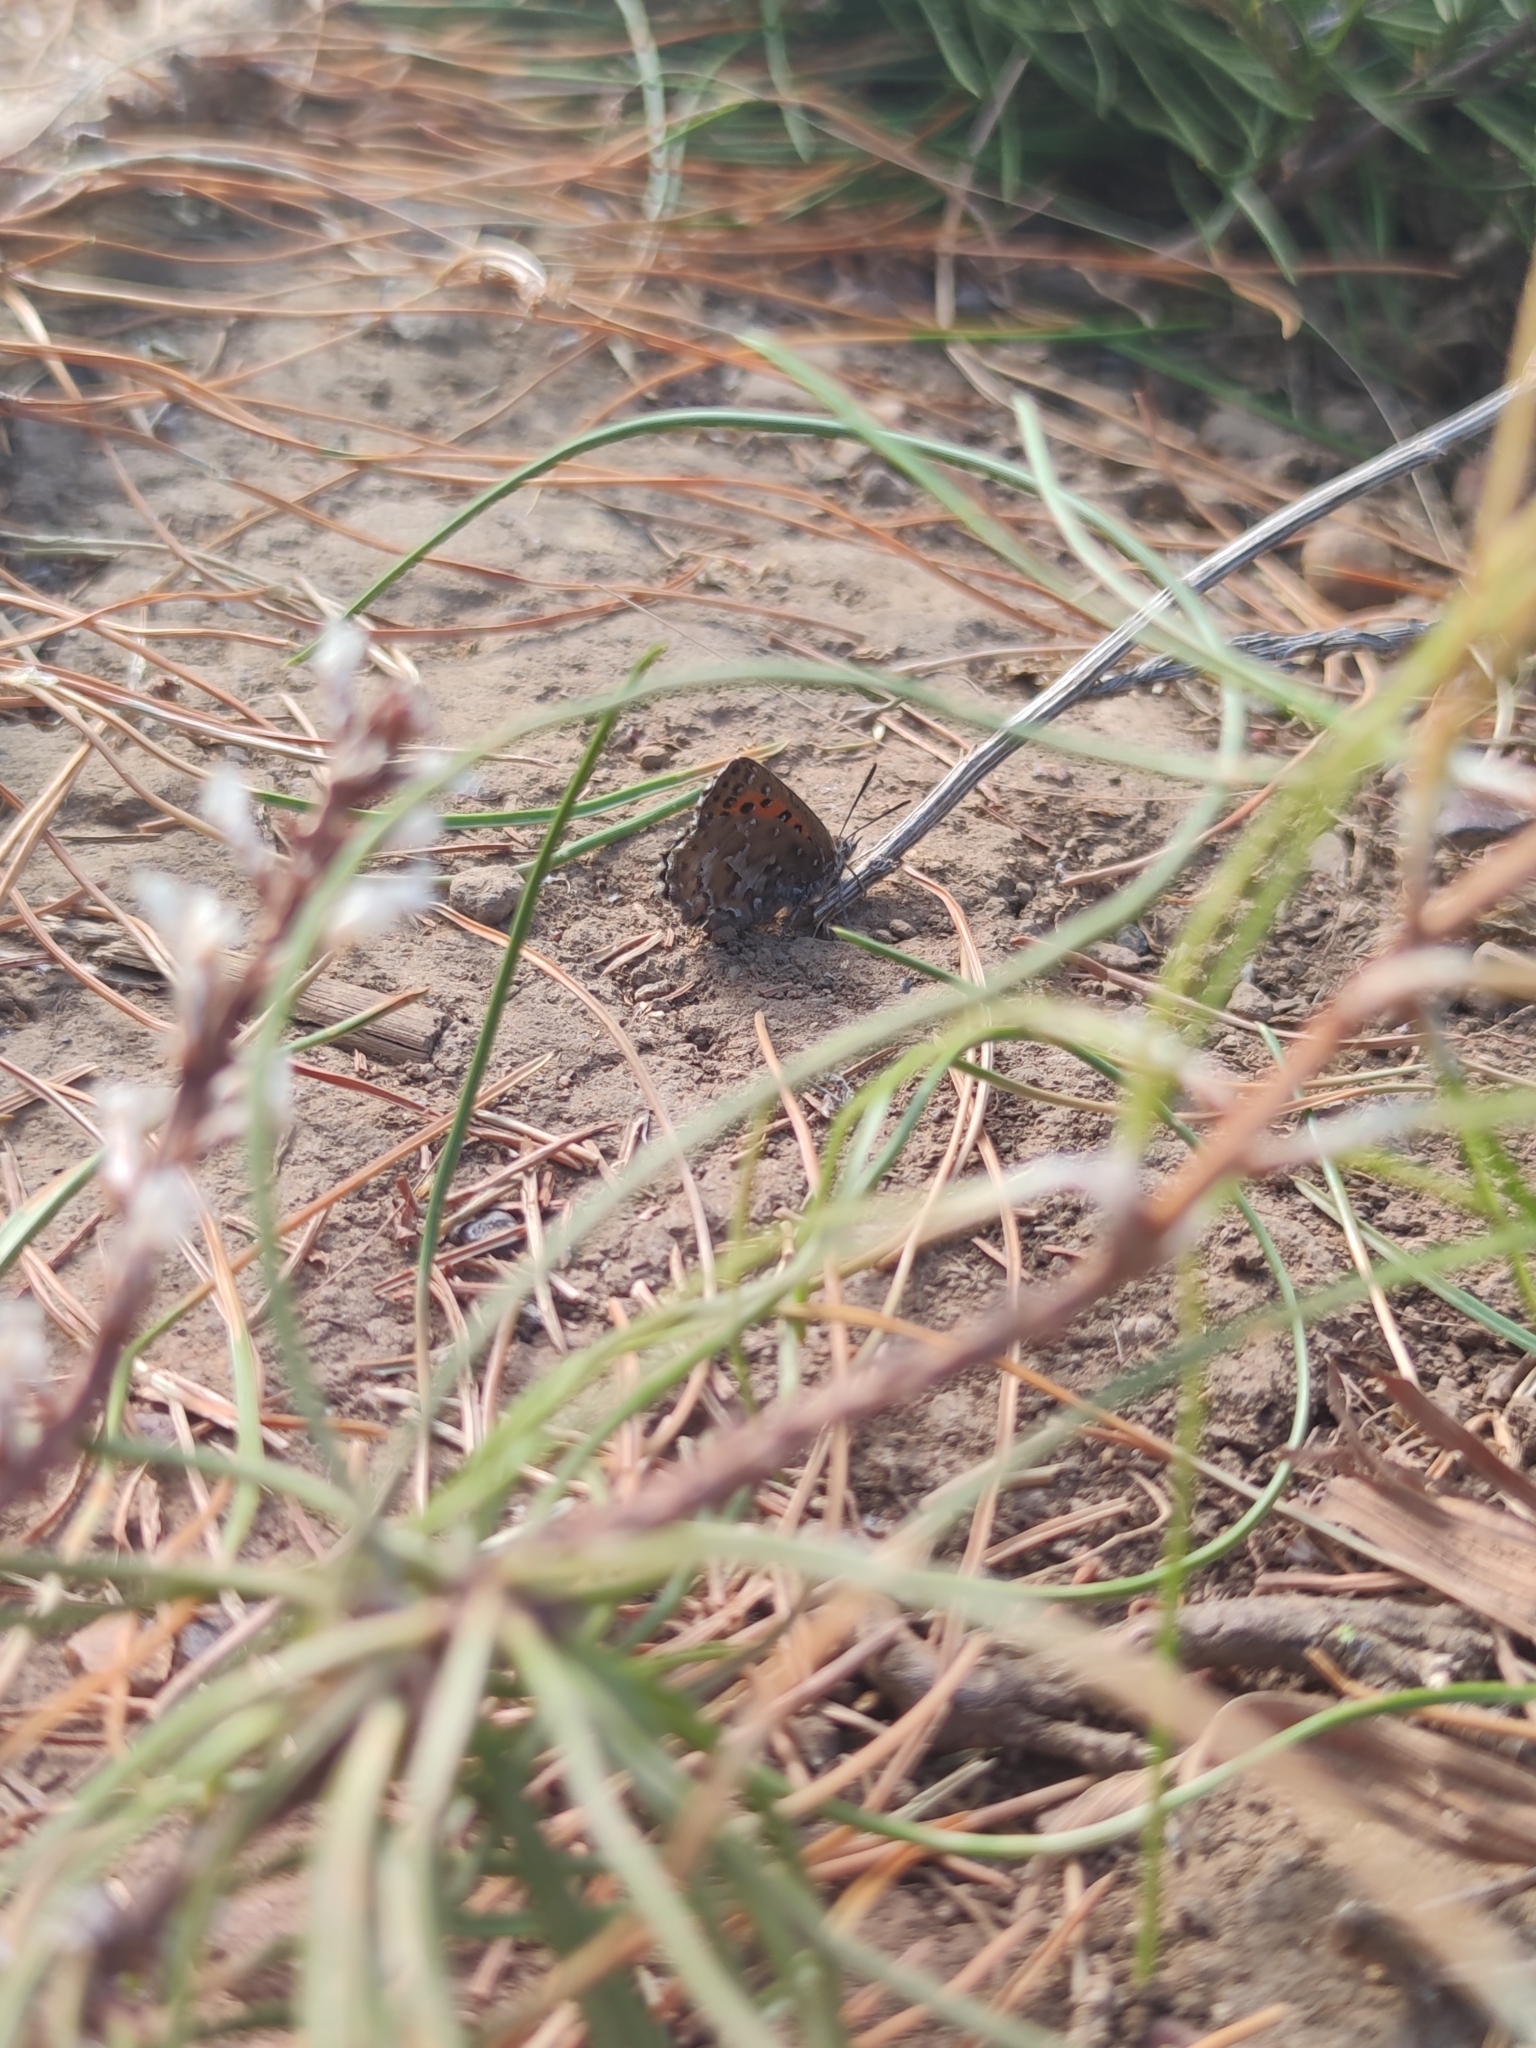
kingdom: Animalia
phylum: Arthropoda
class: Insecta
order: Lepidoptera
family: Lycaenidae
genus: Aloeides
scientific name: Aloeides thyra
